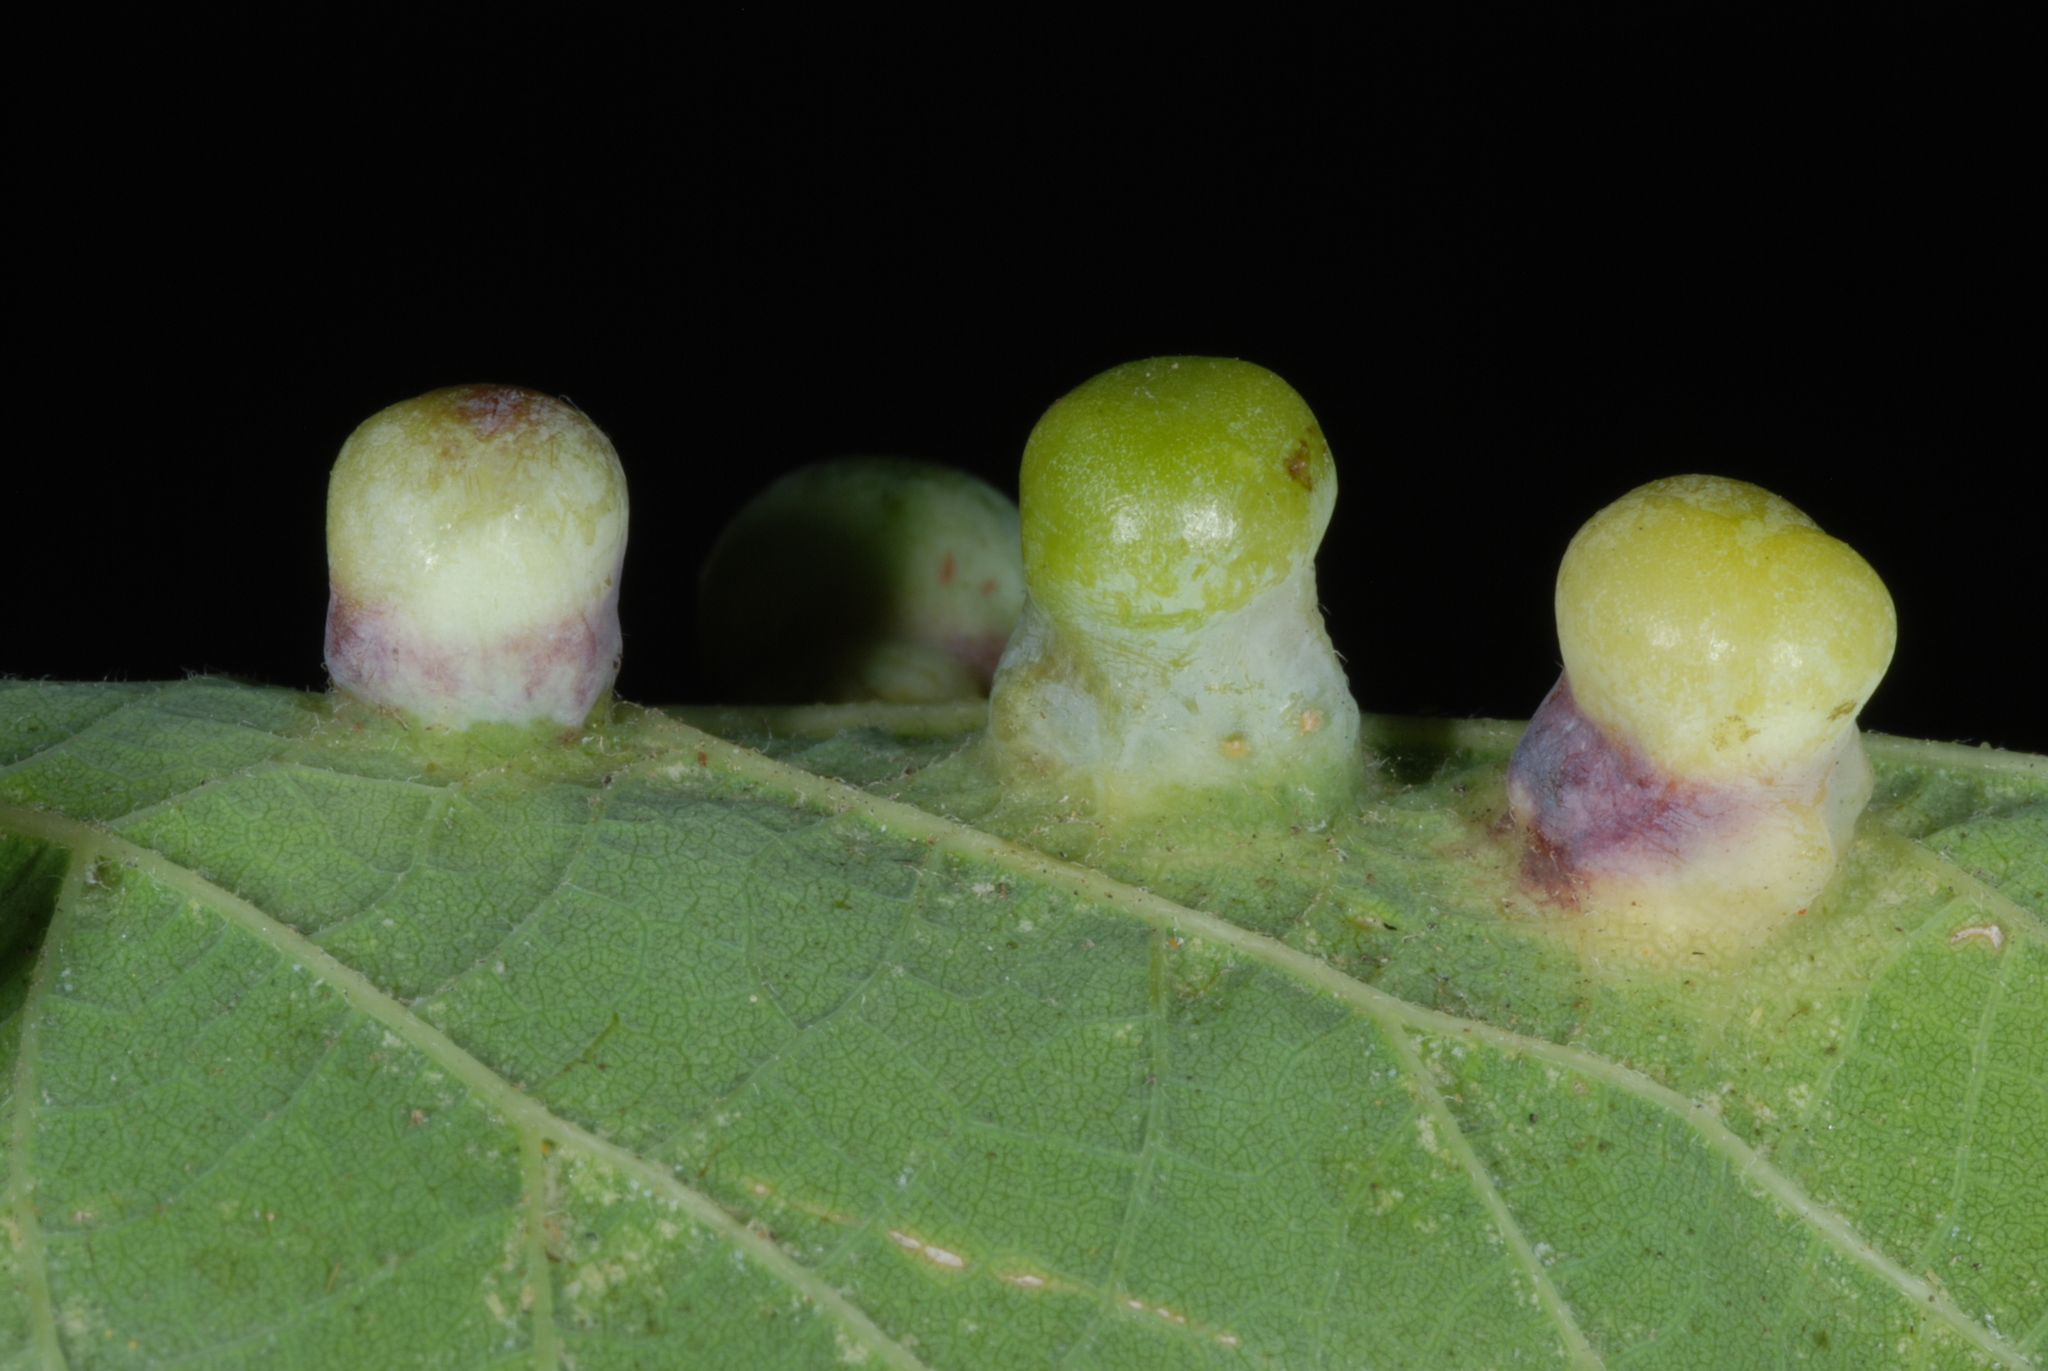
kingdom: Animalia
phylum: Arthropoda
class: Insecta
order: Hemiptera
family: Aphalaridae
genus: Pachypsylla
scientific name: Pachypsylla celtidismamma
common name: Hackberry nipplegall psyllid
